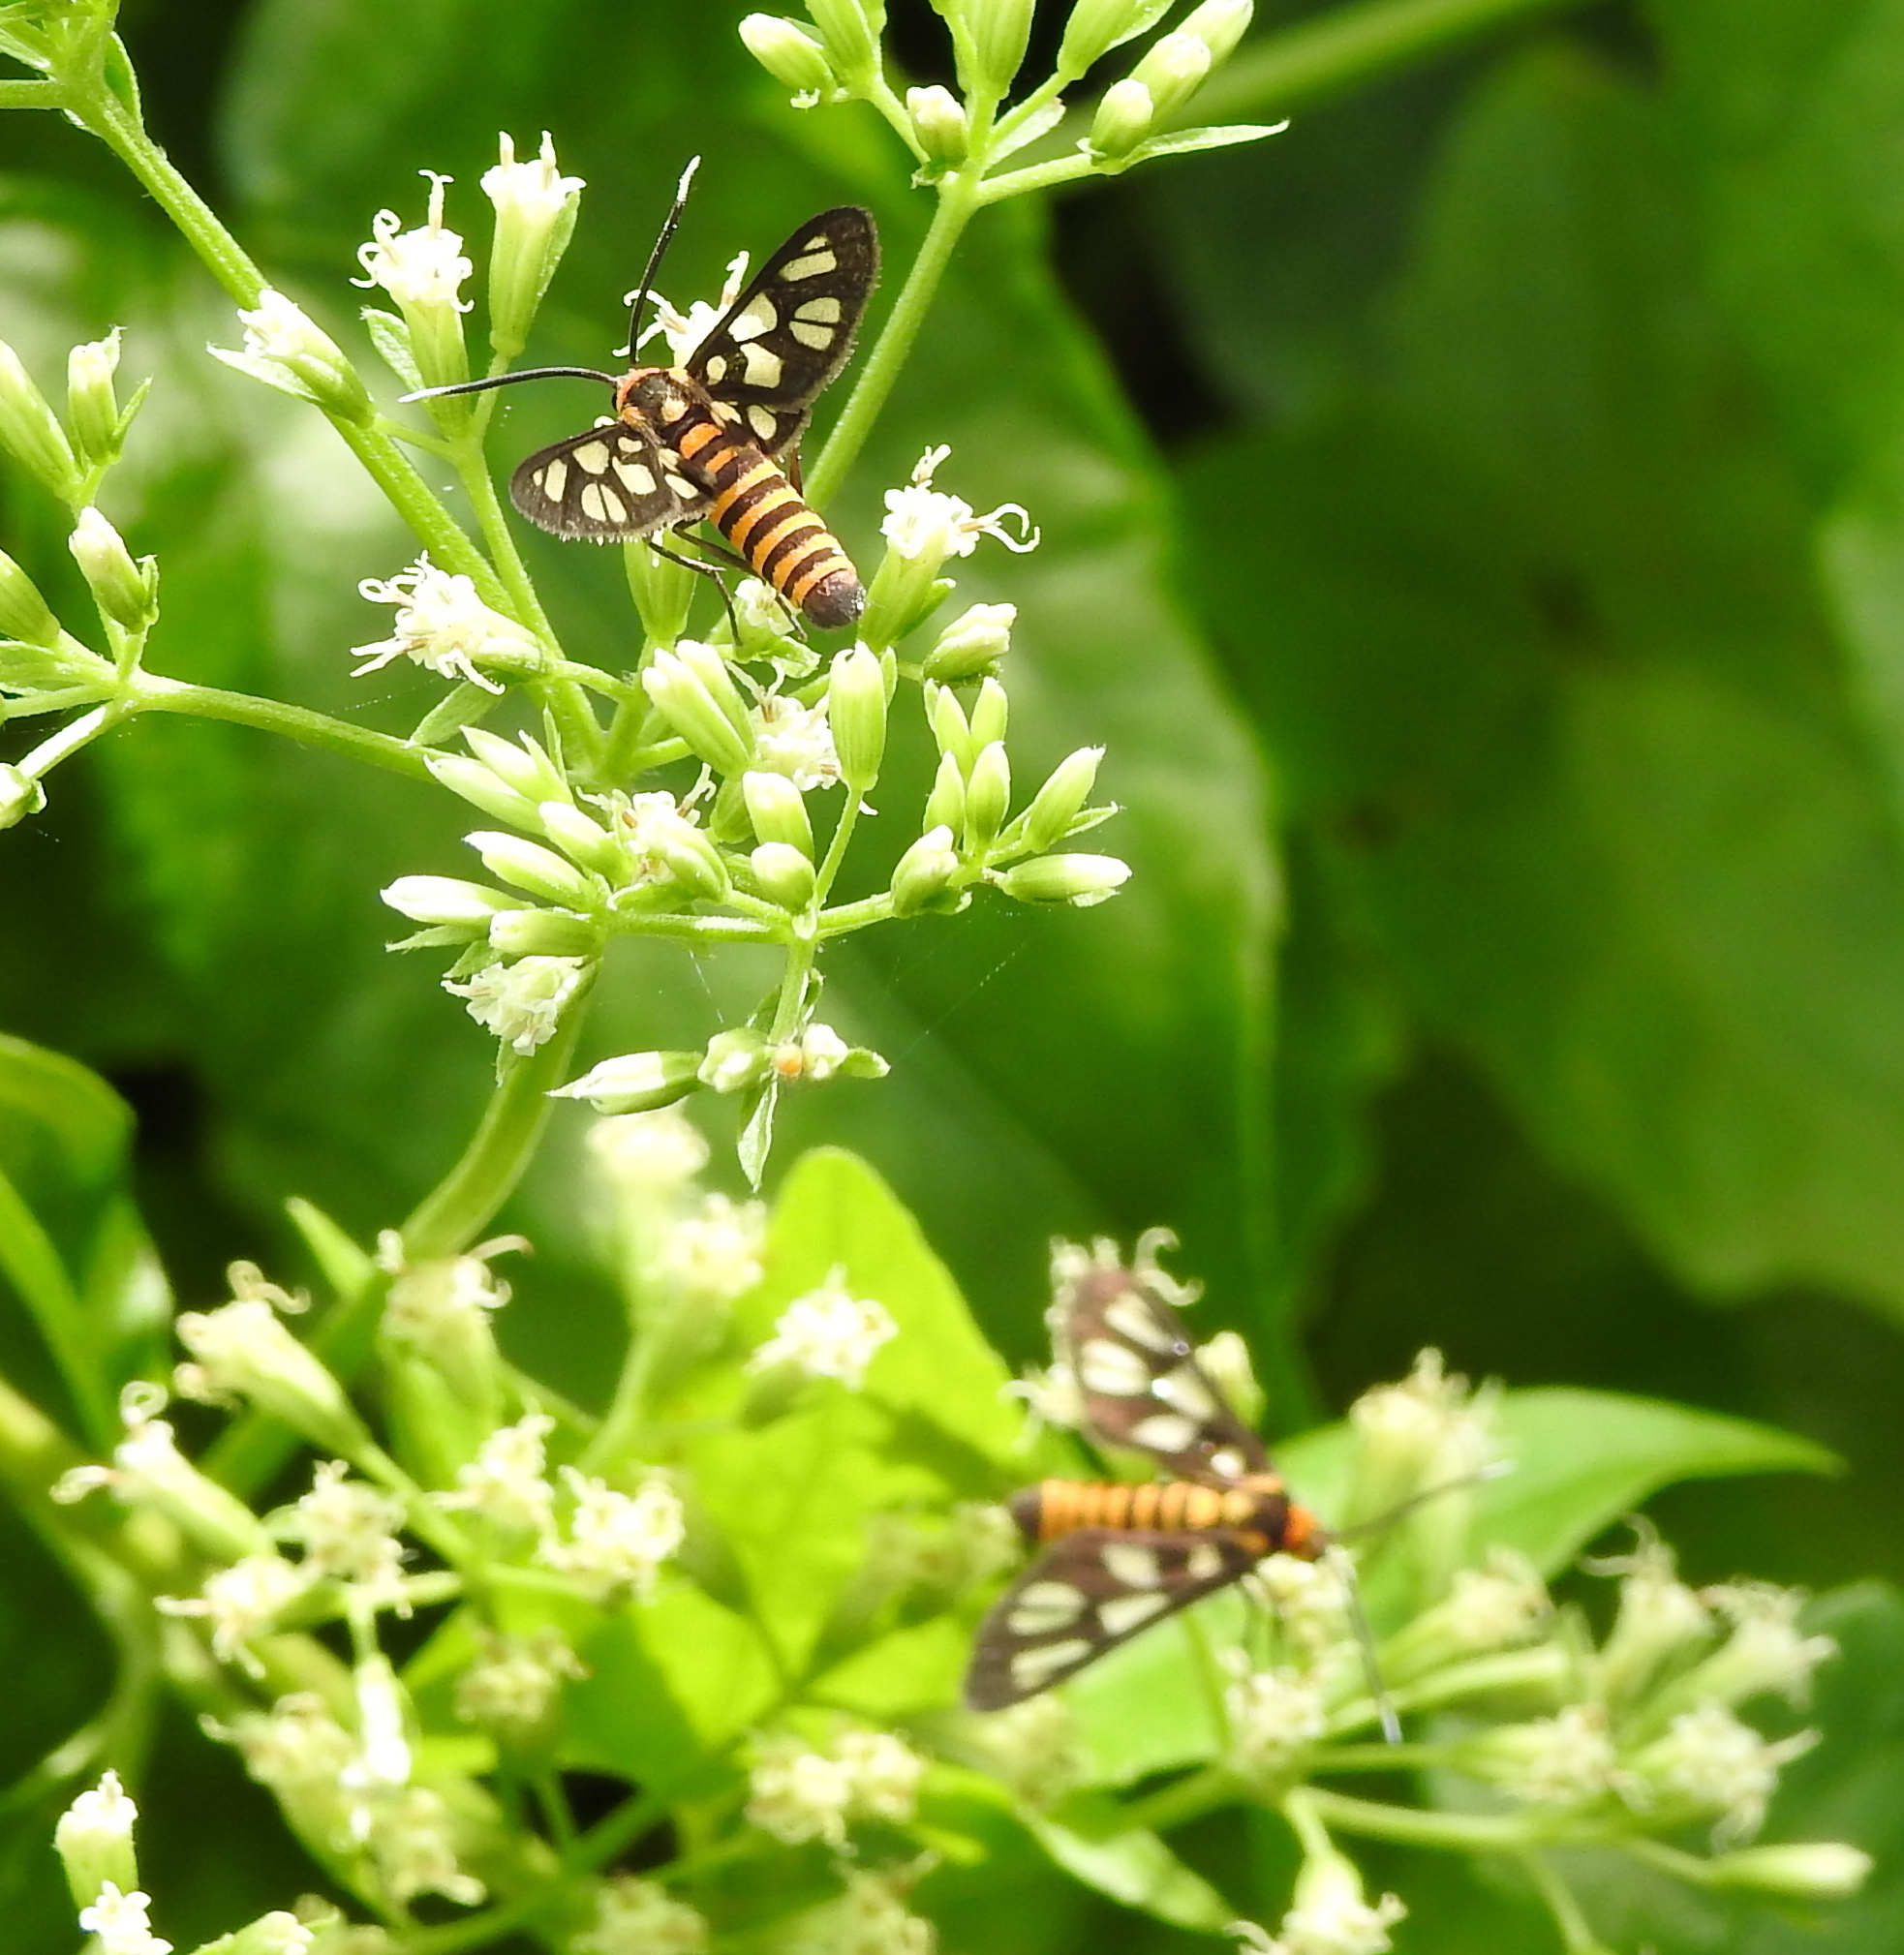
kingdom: Animalia
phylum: Arthropoda
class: Insecta
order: Lepidoptera
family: Erebidae
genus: Amata
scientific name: Amata huebneri
